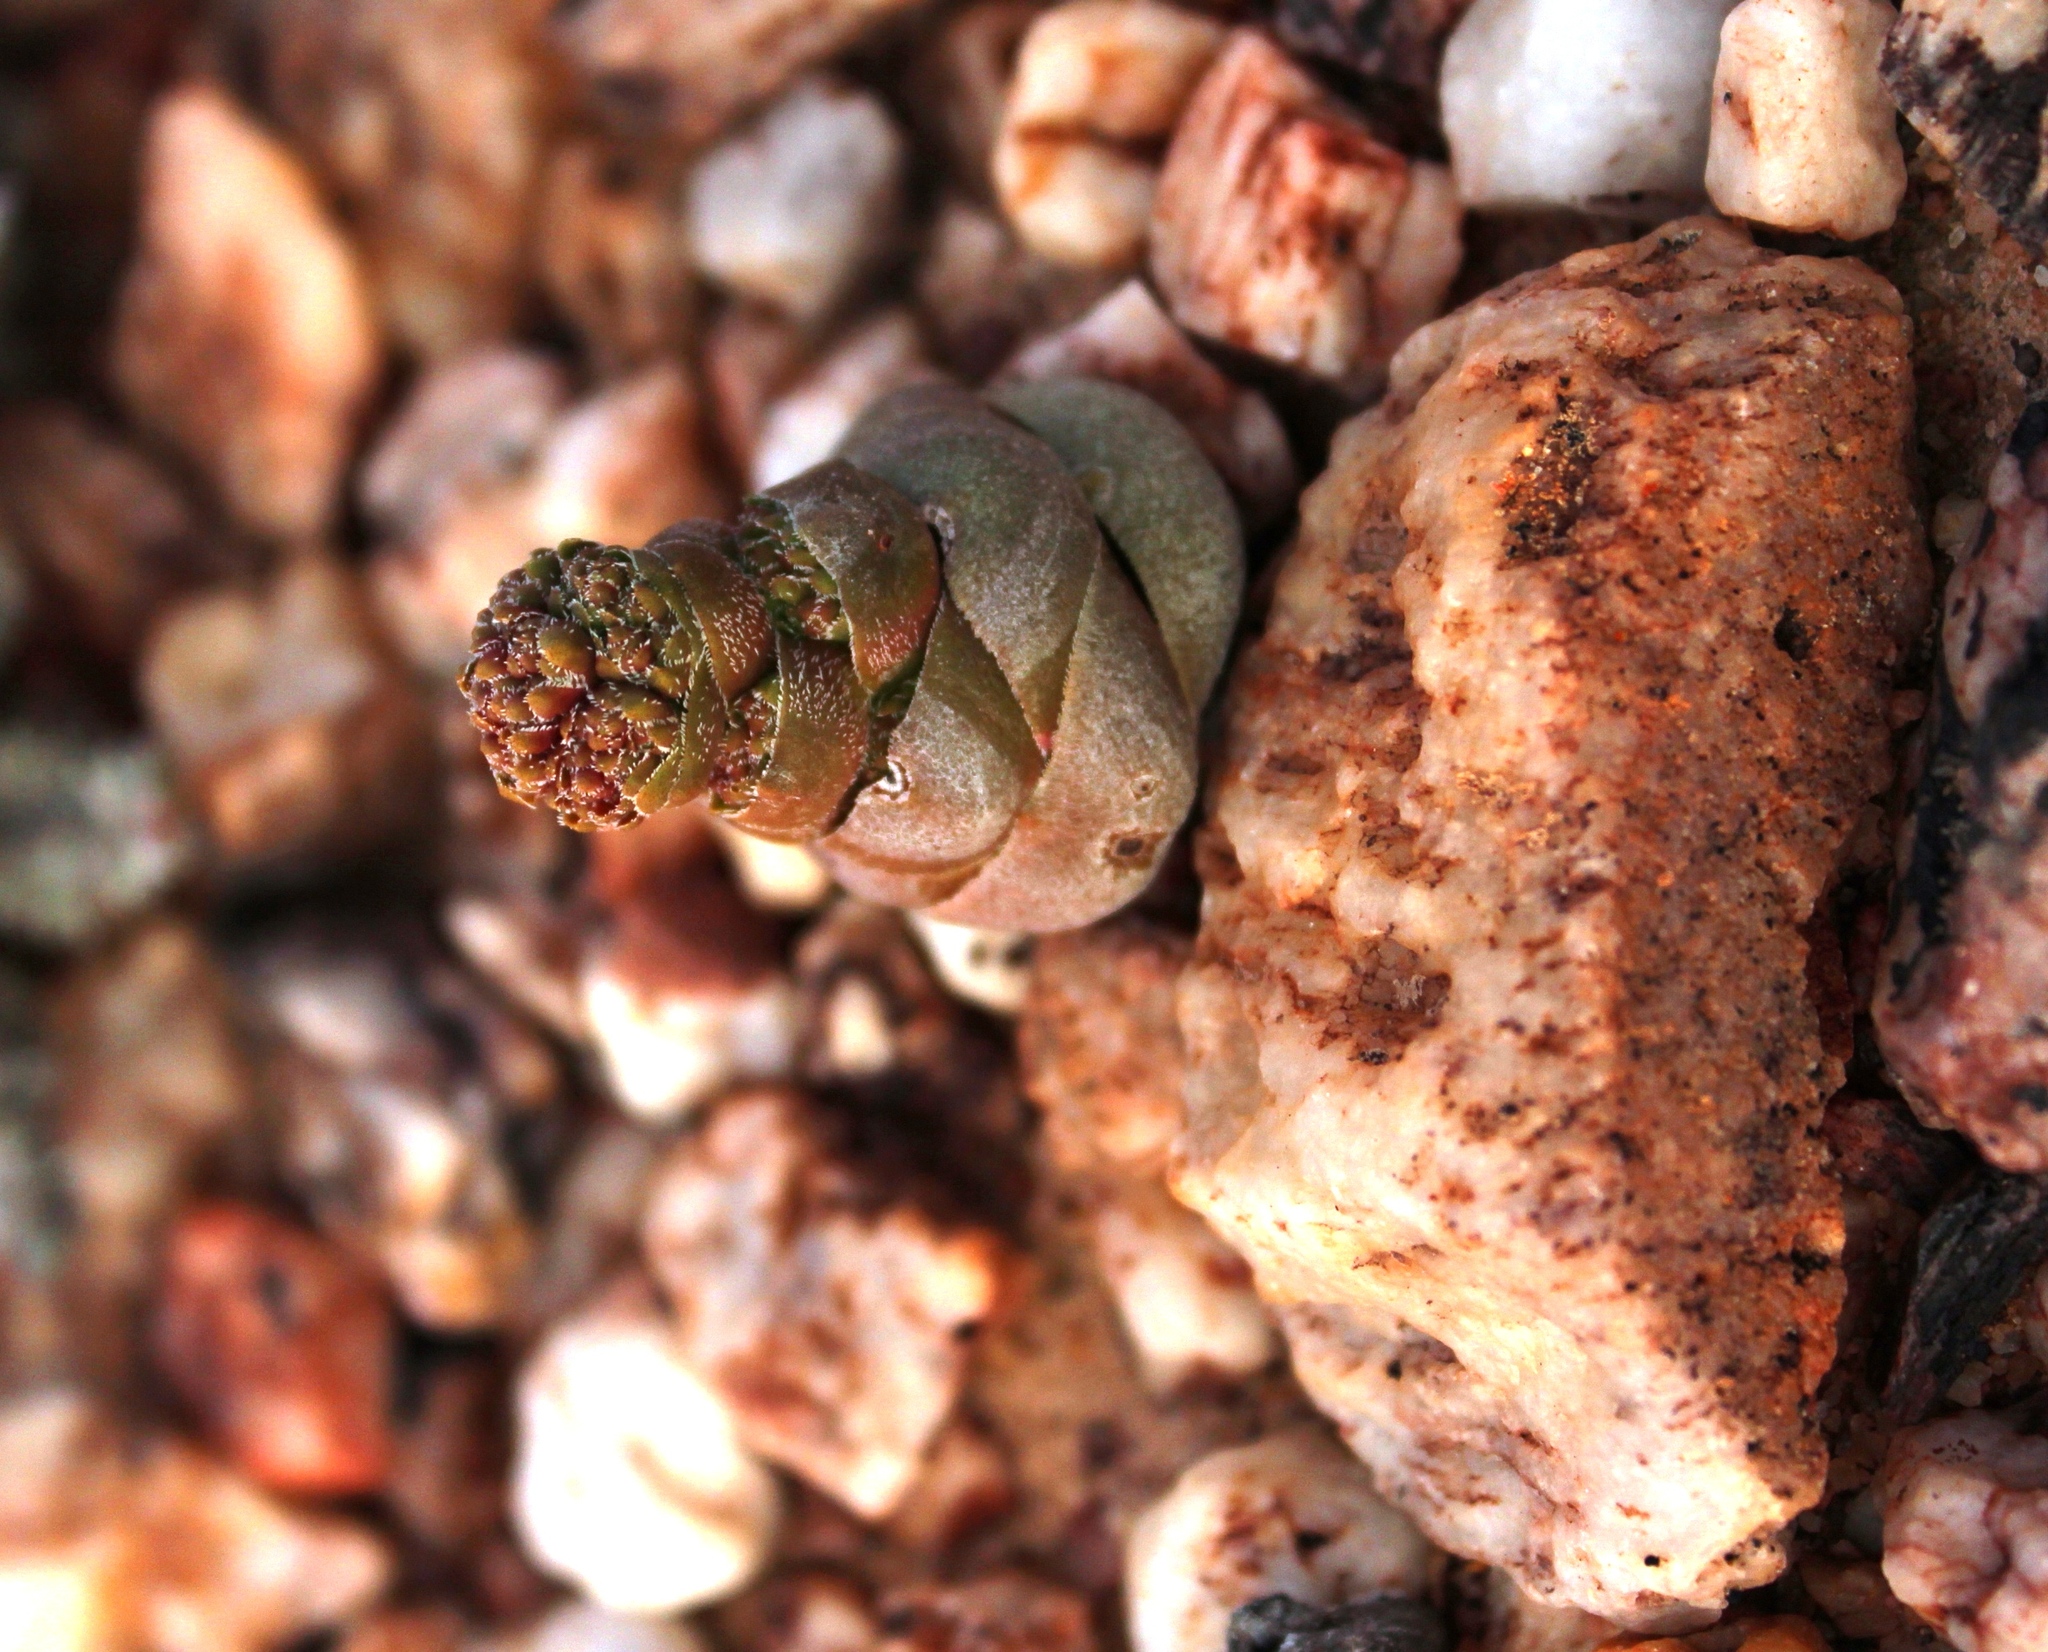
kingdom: Plantae
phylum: Tracheophyta
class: Magnoliopsida
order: Saxifragales
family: Crassulaceae
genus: Crassula
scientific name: Crassula columnaris
